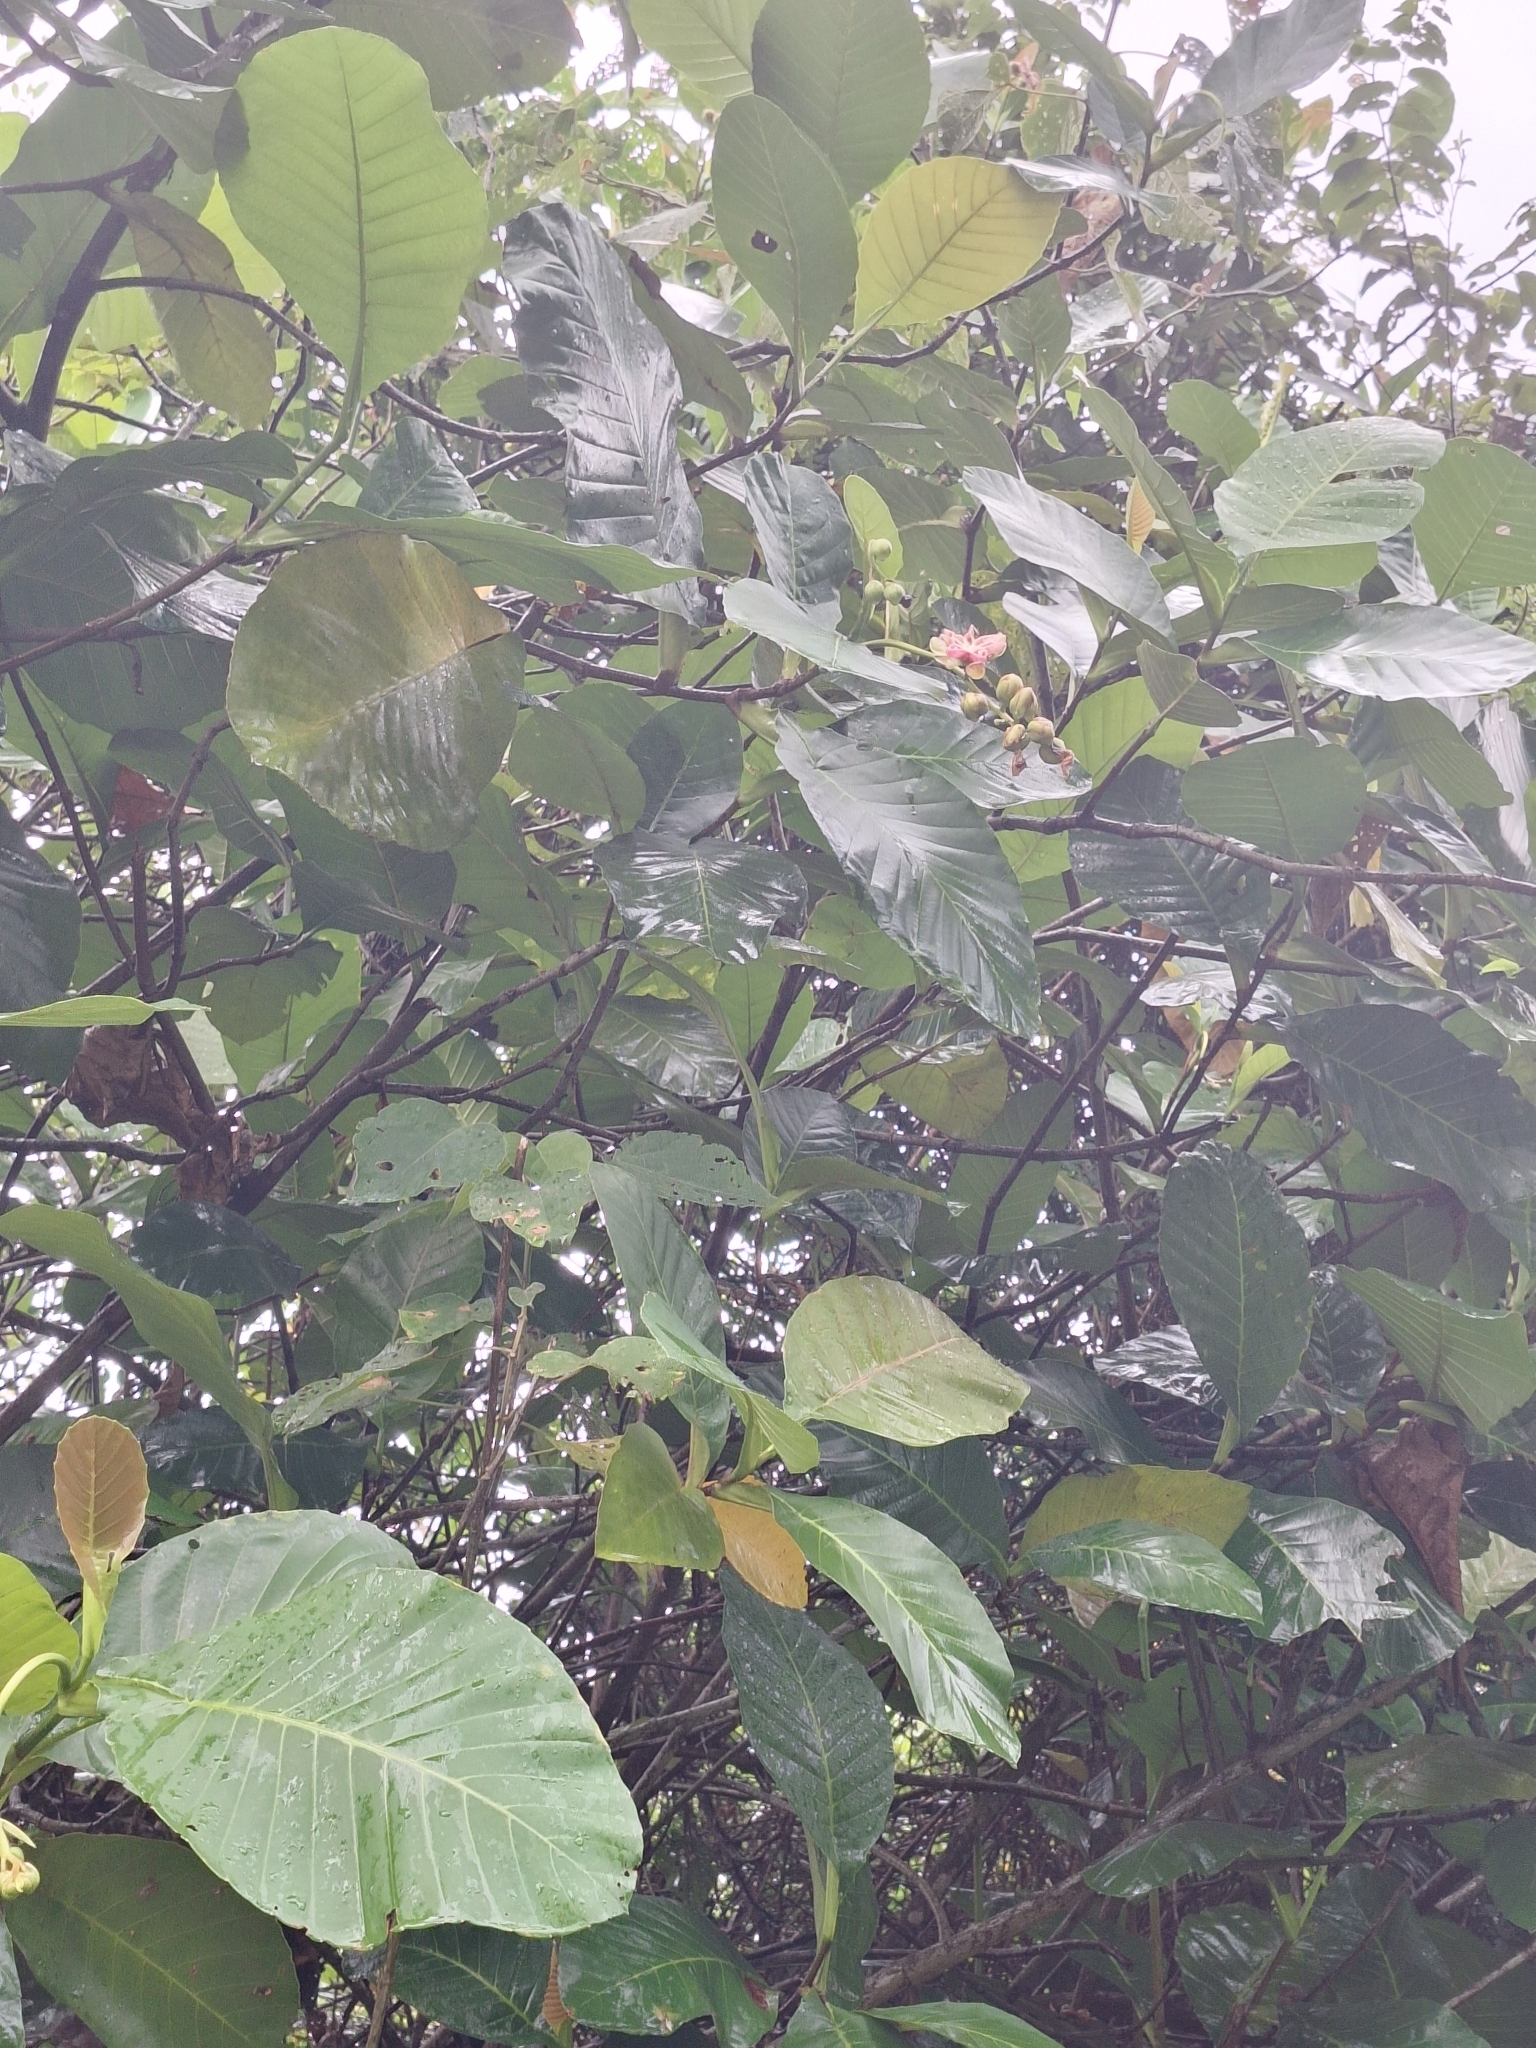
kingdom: Plantae
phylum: Tracheophyta
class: Magnoliopsida
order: Dilleniales
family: Dilleniaceae
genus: Dillenia
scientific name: Dillenia suffruticosa
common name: Shrubby dillenia
